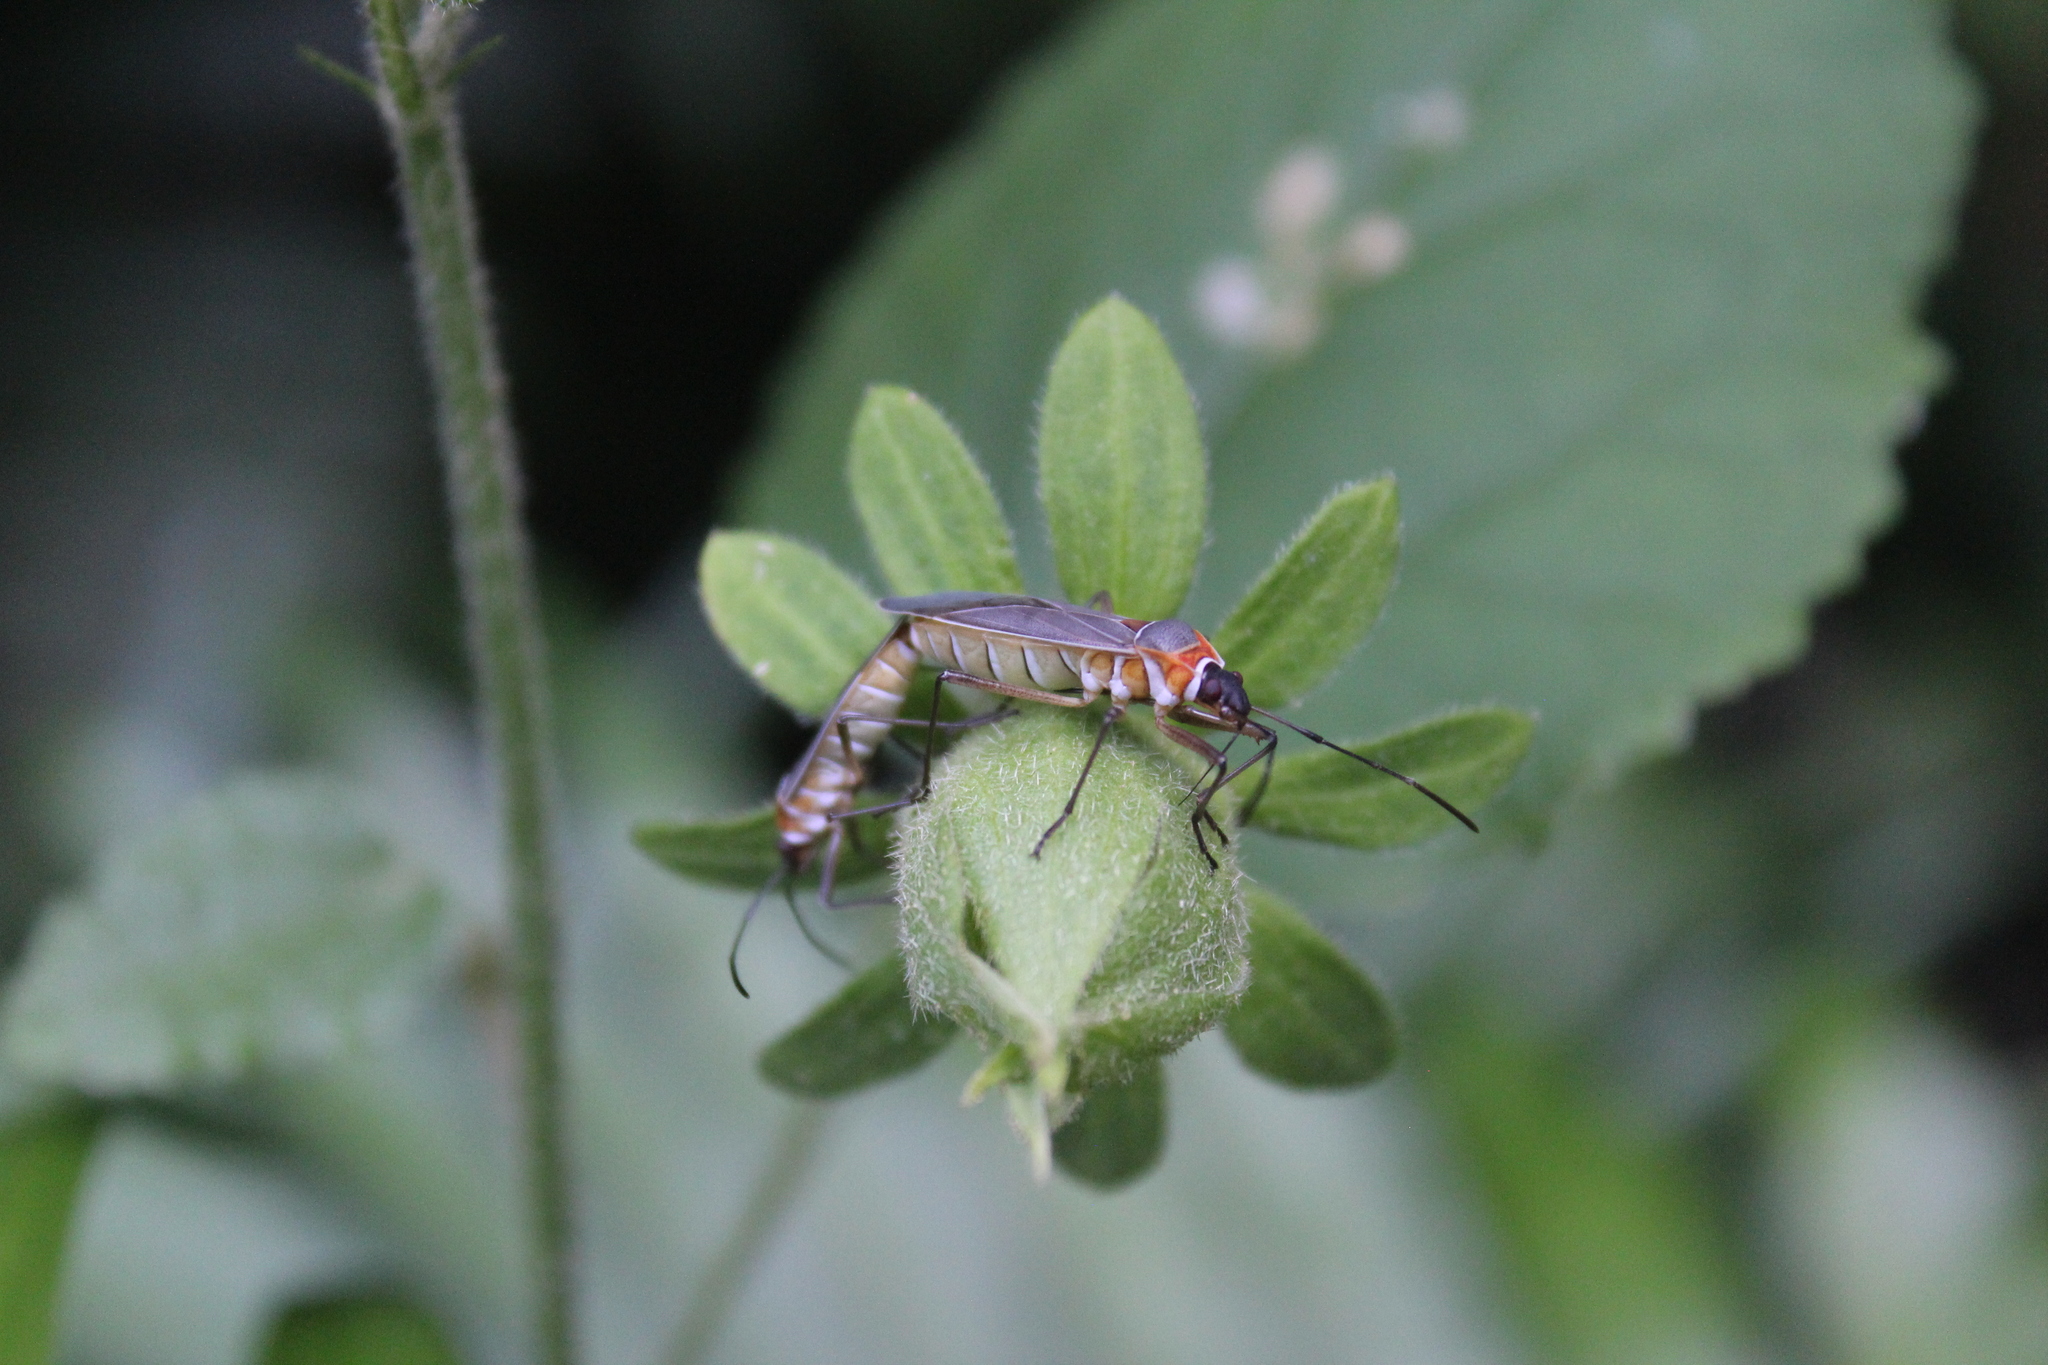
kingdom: Animalia
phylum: Arthropoda
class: Insecta
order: Hemiptera
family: Pyrrhocoridae
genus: Dysdercus
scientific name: Dysdercus
